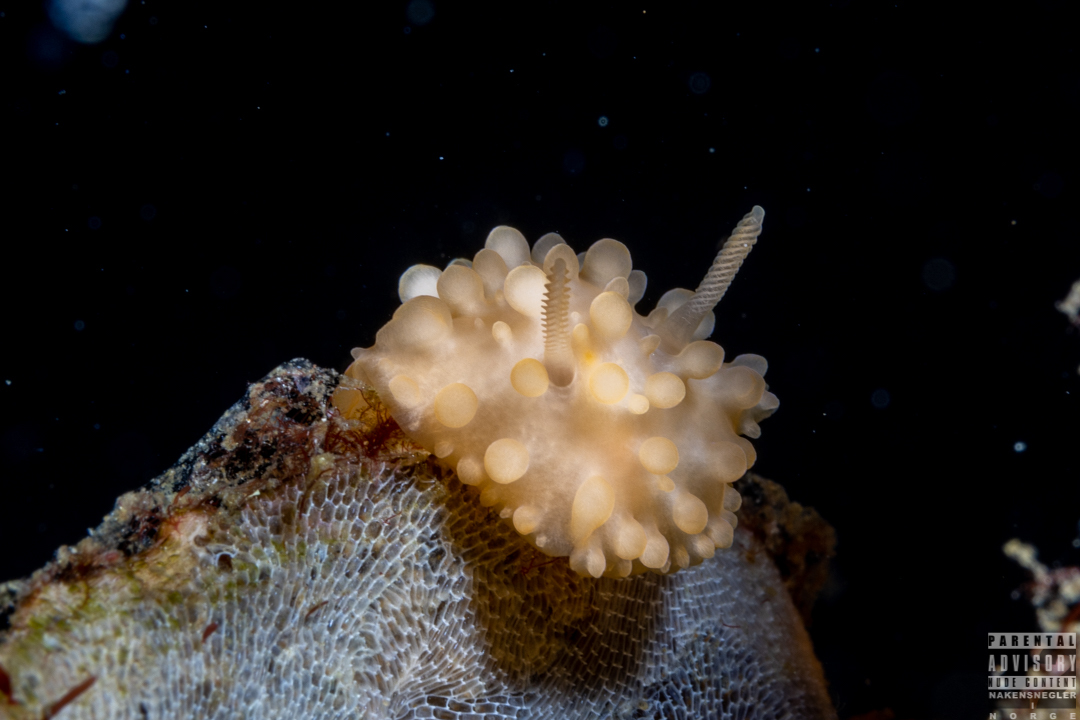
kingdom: Animalia
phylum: Mollusca
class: Gastropoda
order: Nudibranchia
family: Onchidorididae
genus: Adalaria
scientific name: Adalaria loveni
